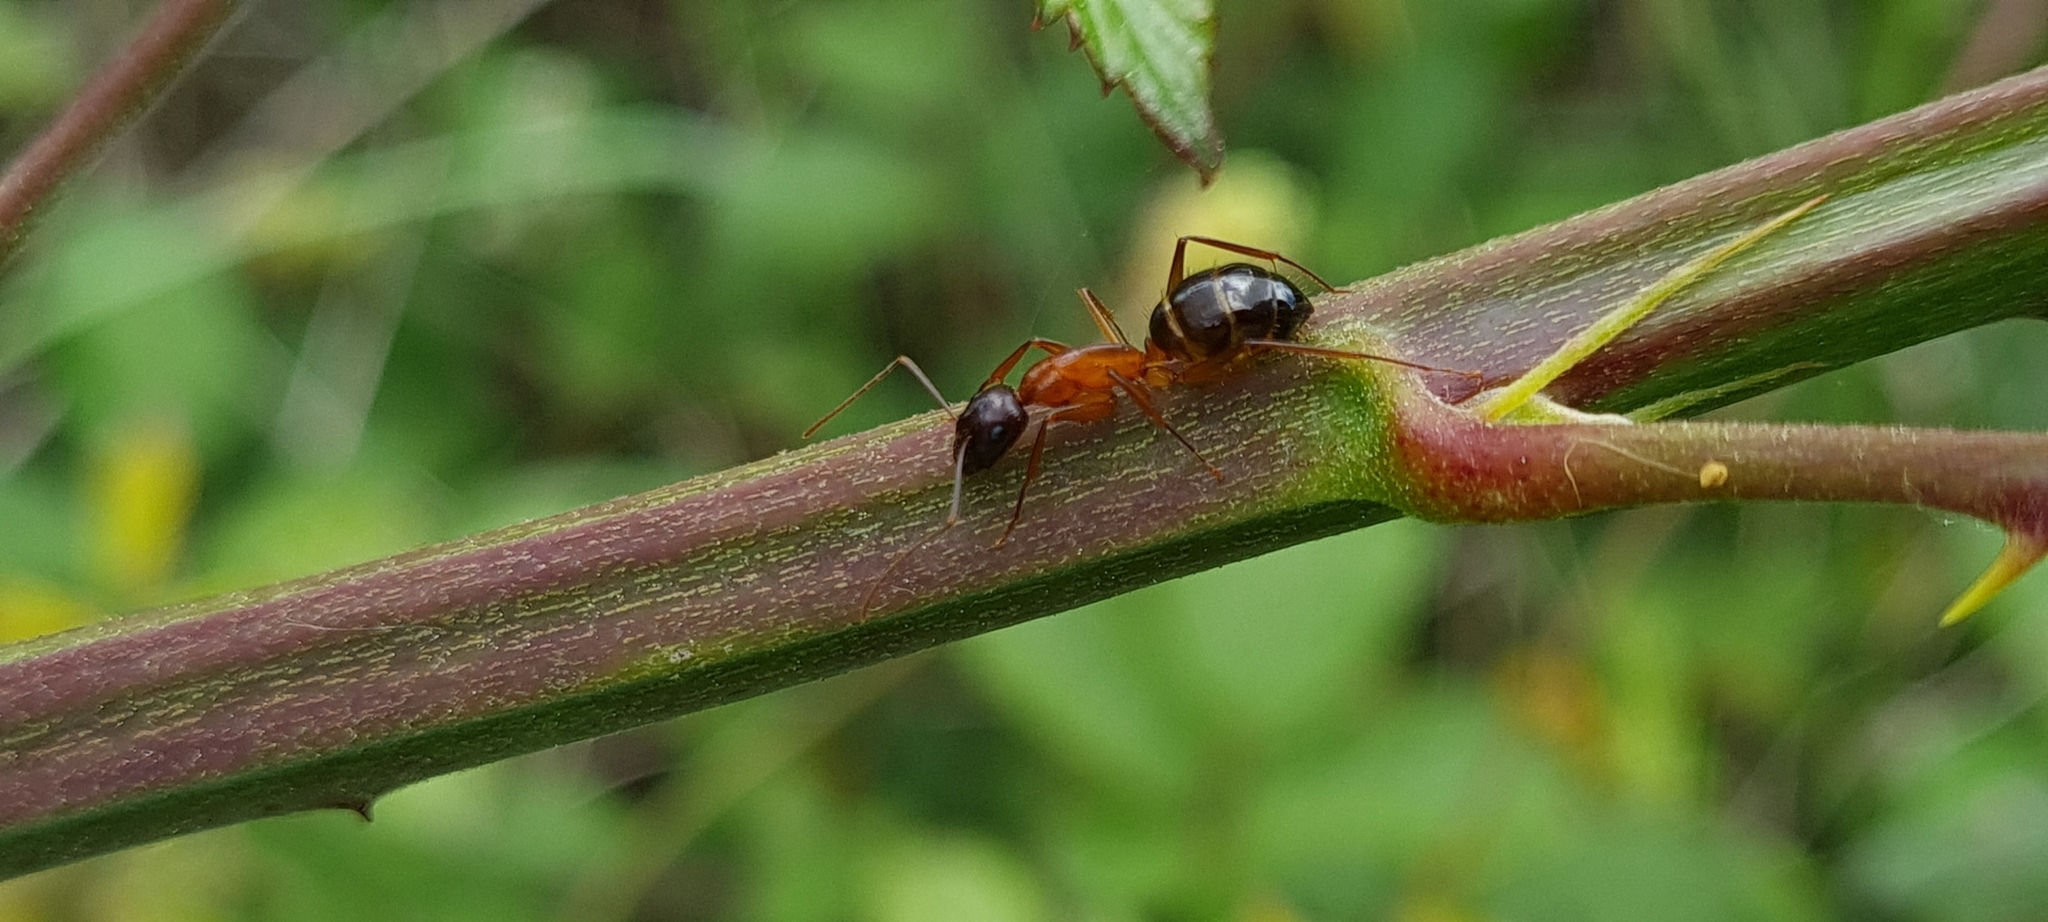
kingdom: Animalia
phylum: Arthropoda
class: Insecta
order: Hymenoptera
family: Formicidae
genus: Camponotus
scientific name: Camponotus pilicornis
